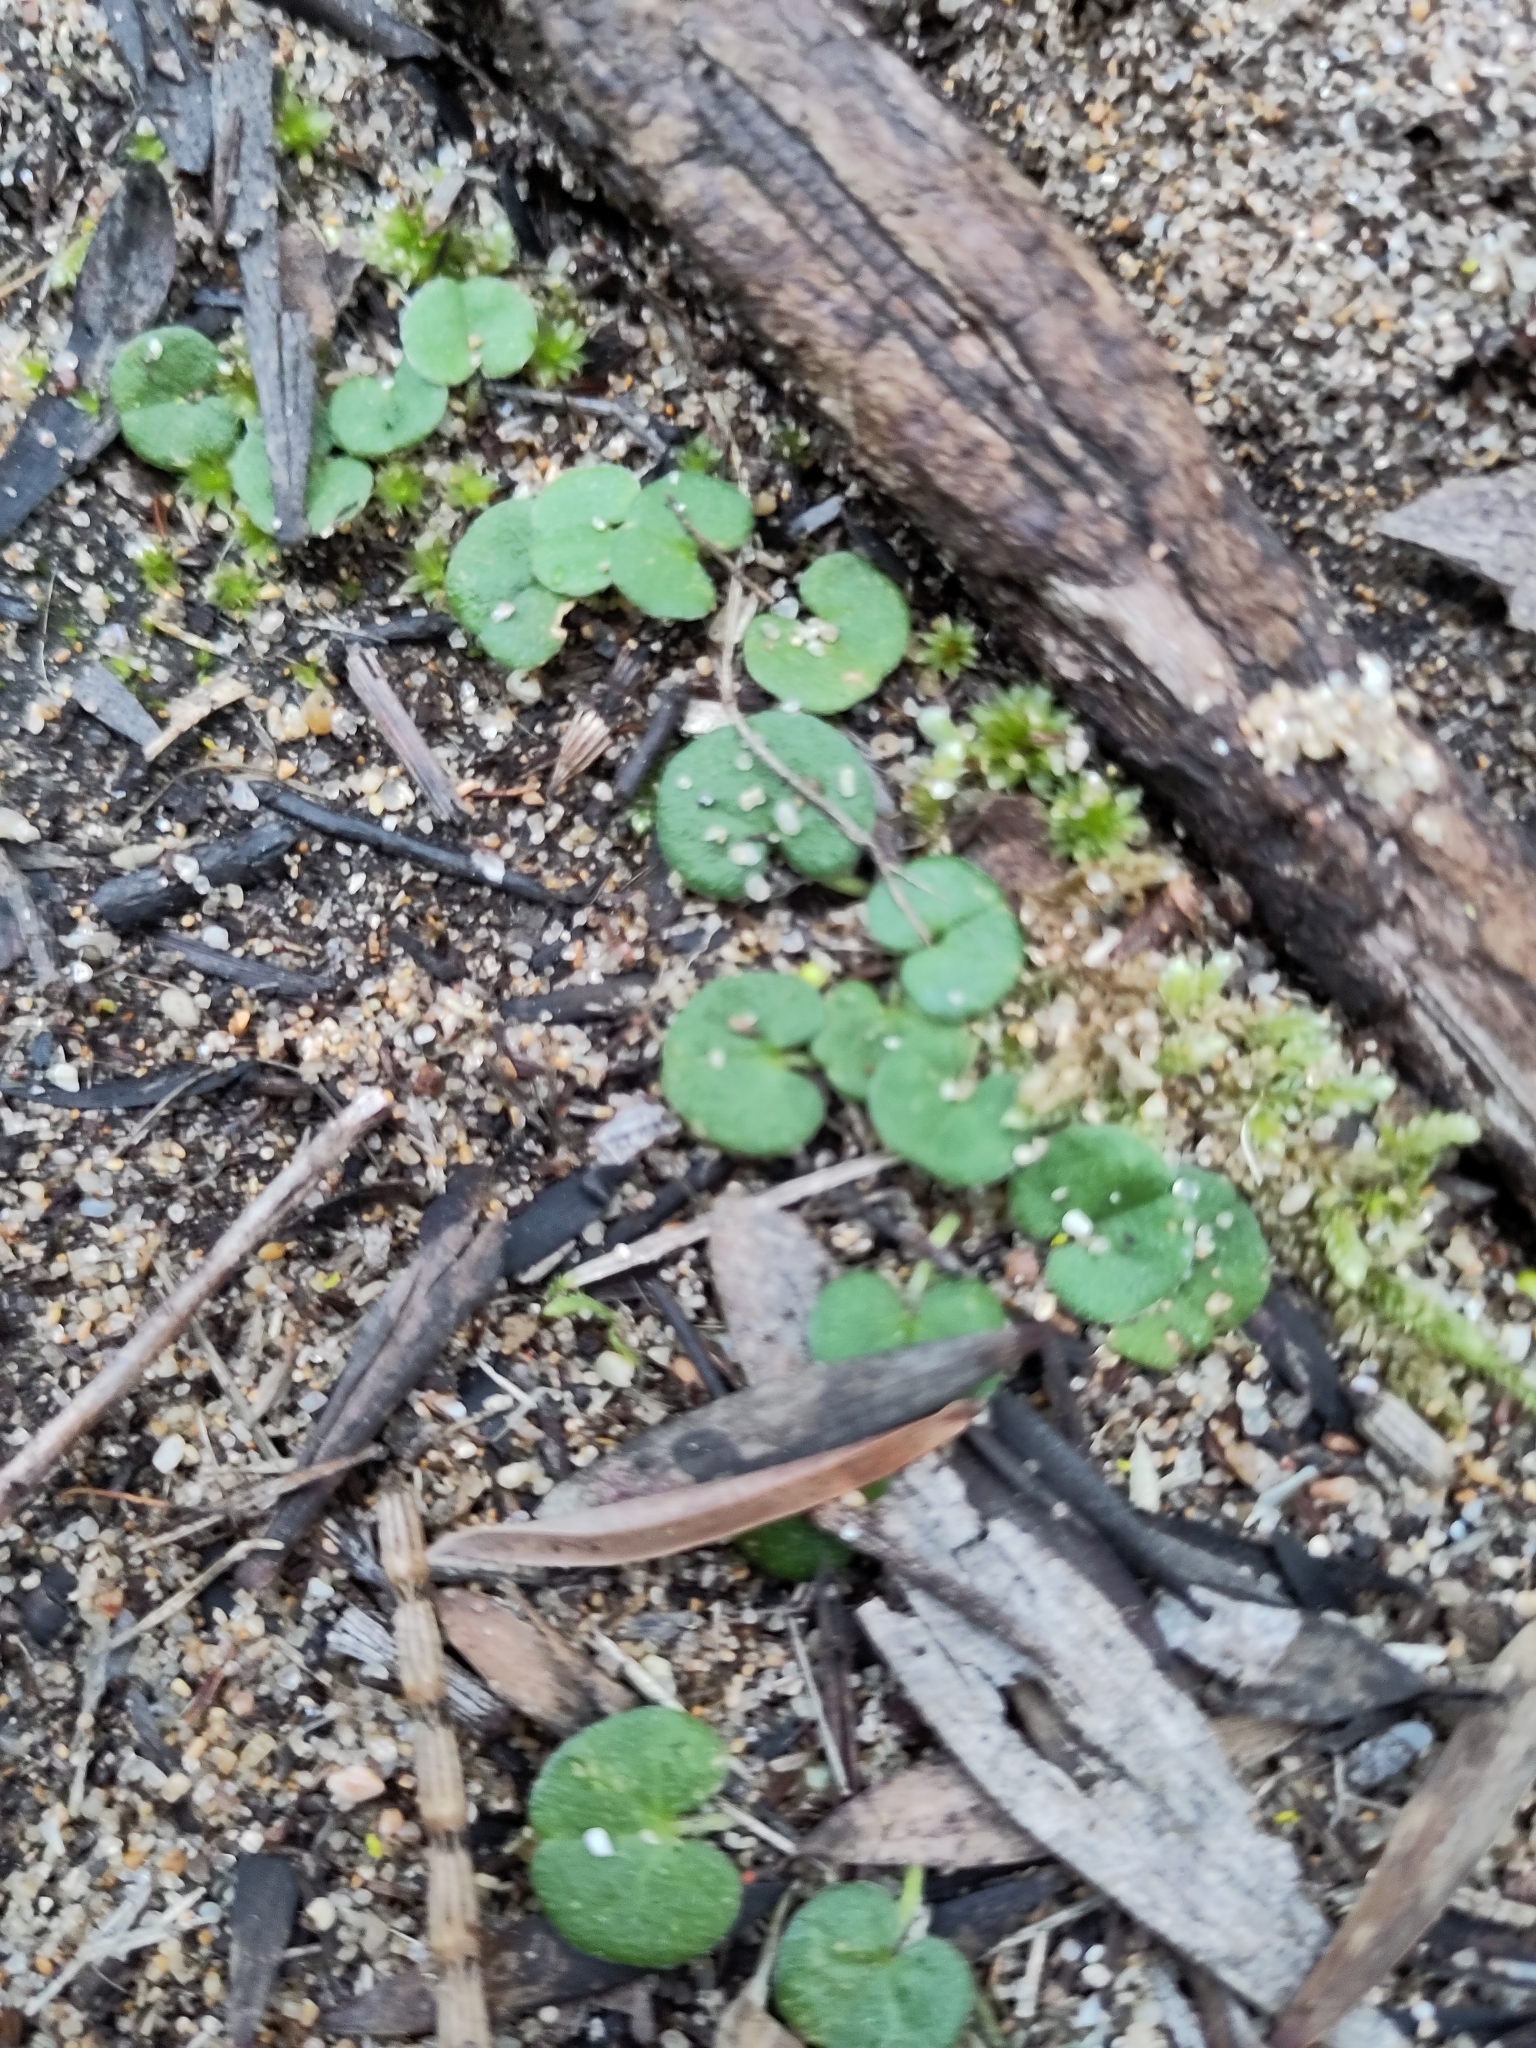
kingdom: Plantae
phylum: Tracheophyta
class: Magnoliopsida
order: Solanales
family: Convolvulaceae
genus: Dichondra
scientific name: Dichondra repens
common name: Kidneyweed
